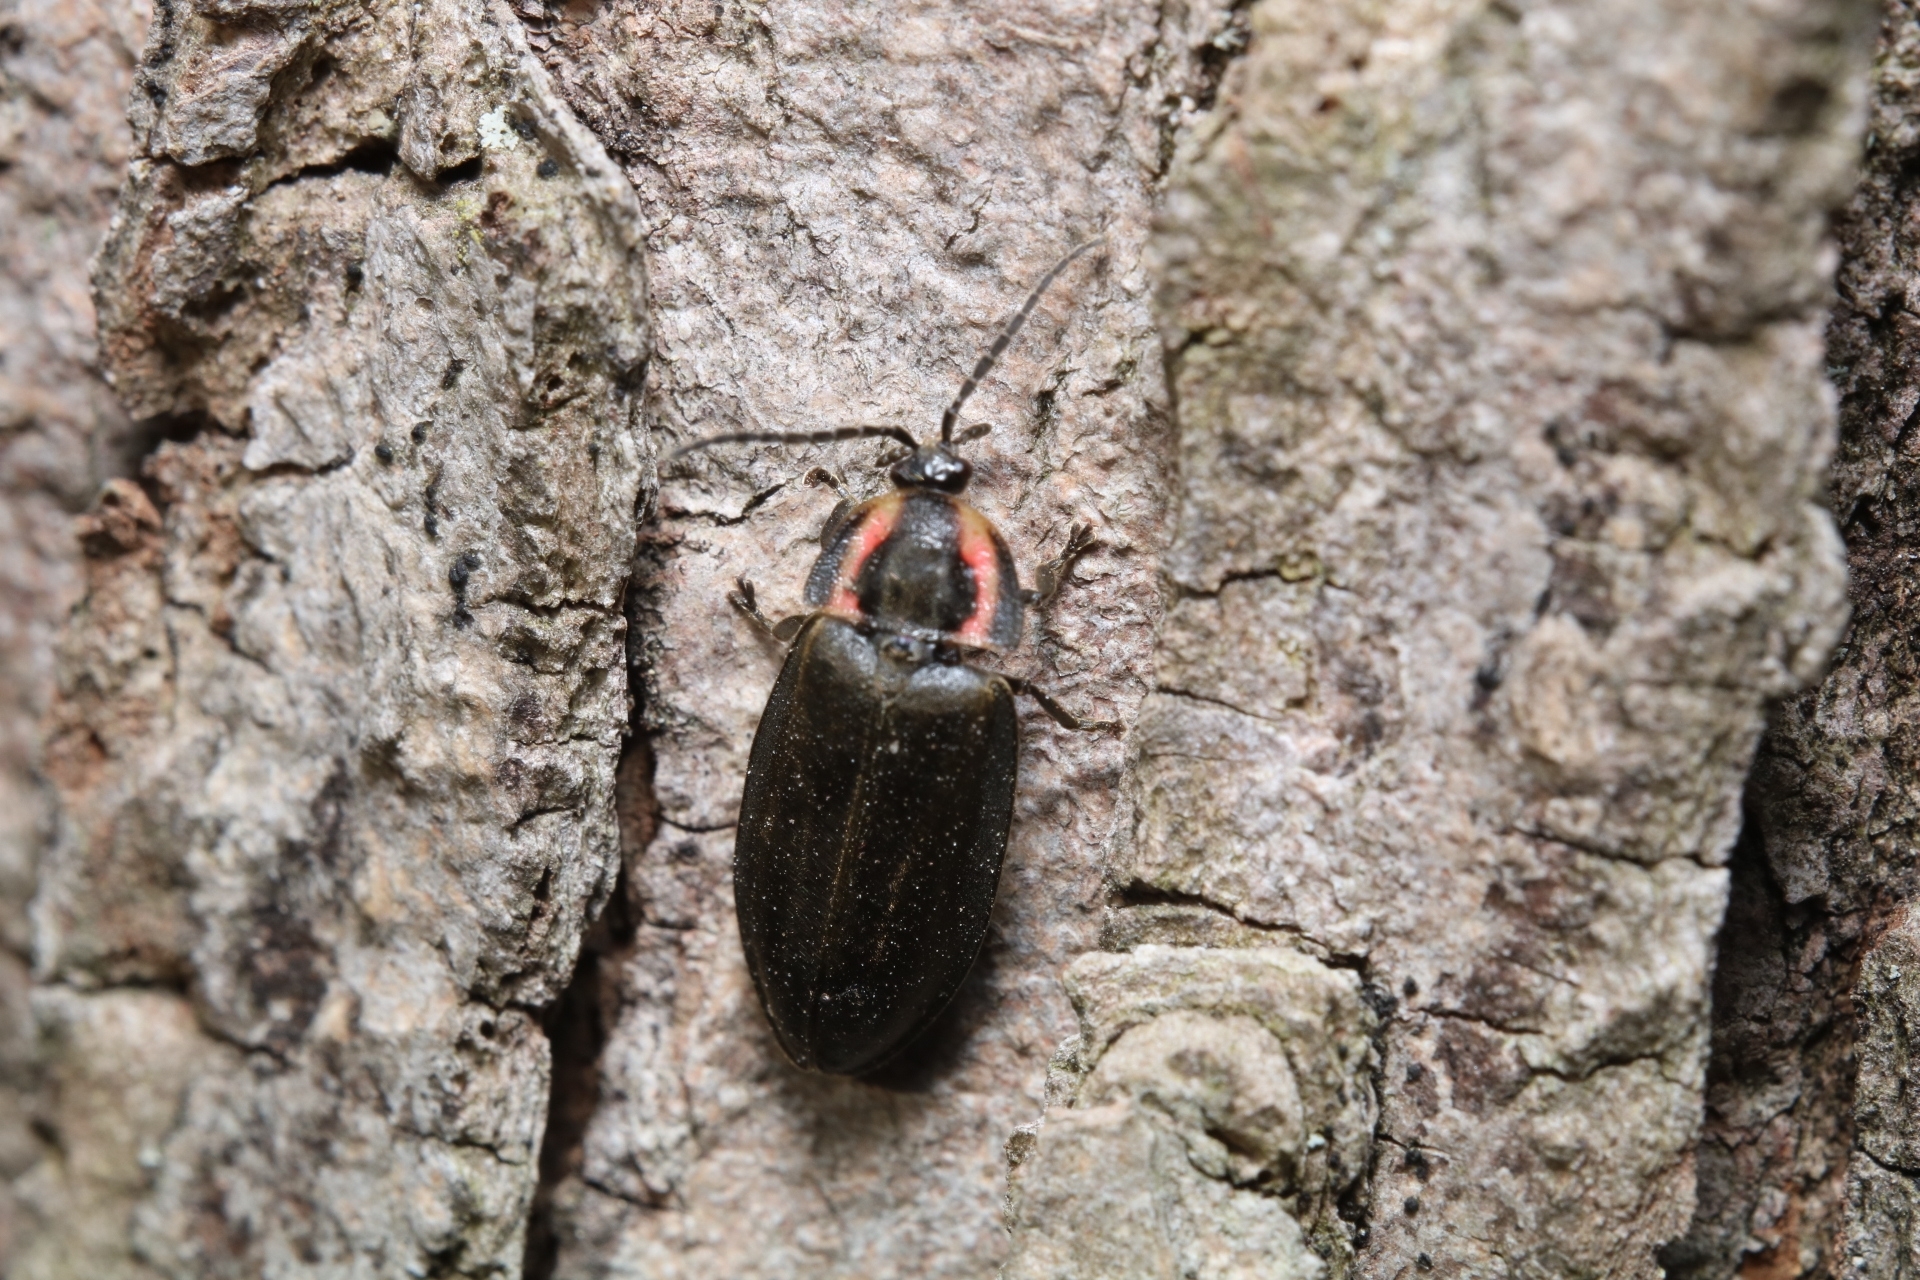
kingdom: Animalia
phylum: Arthropoda
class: Insecta
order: Coleoptera
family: Lampyridae
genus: Photinus
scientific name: Photinus corrusca
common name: Winter firefly
